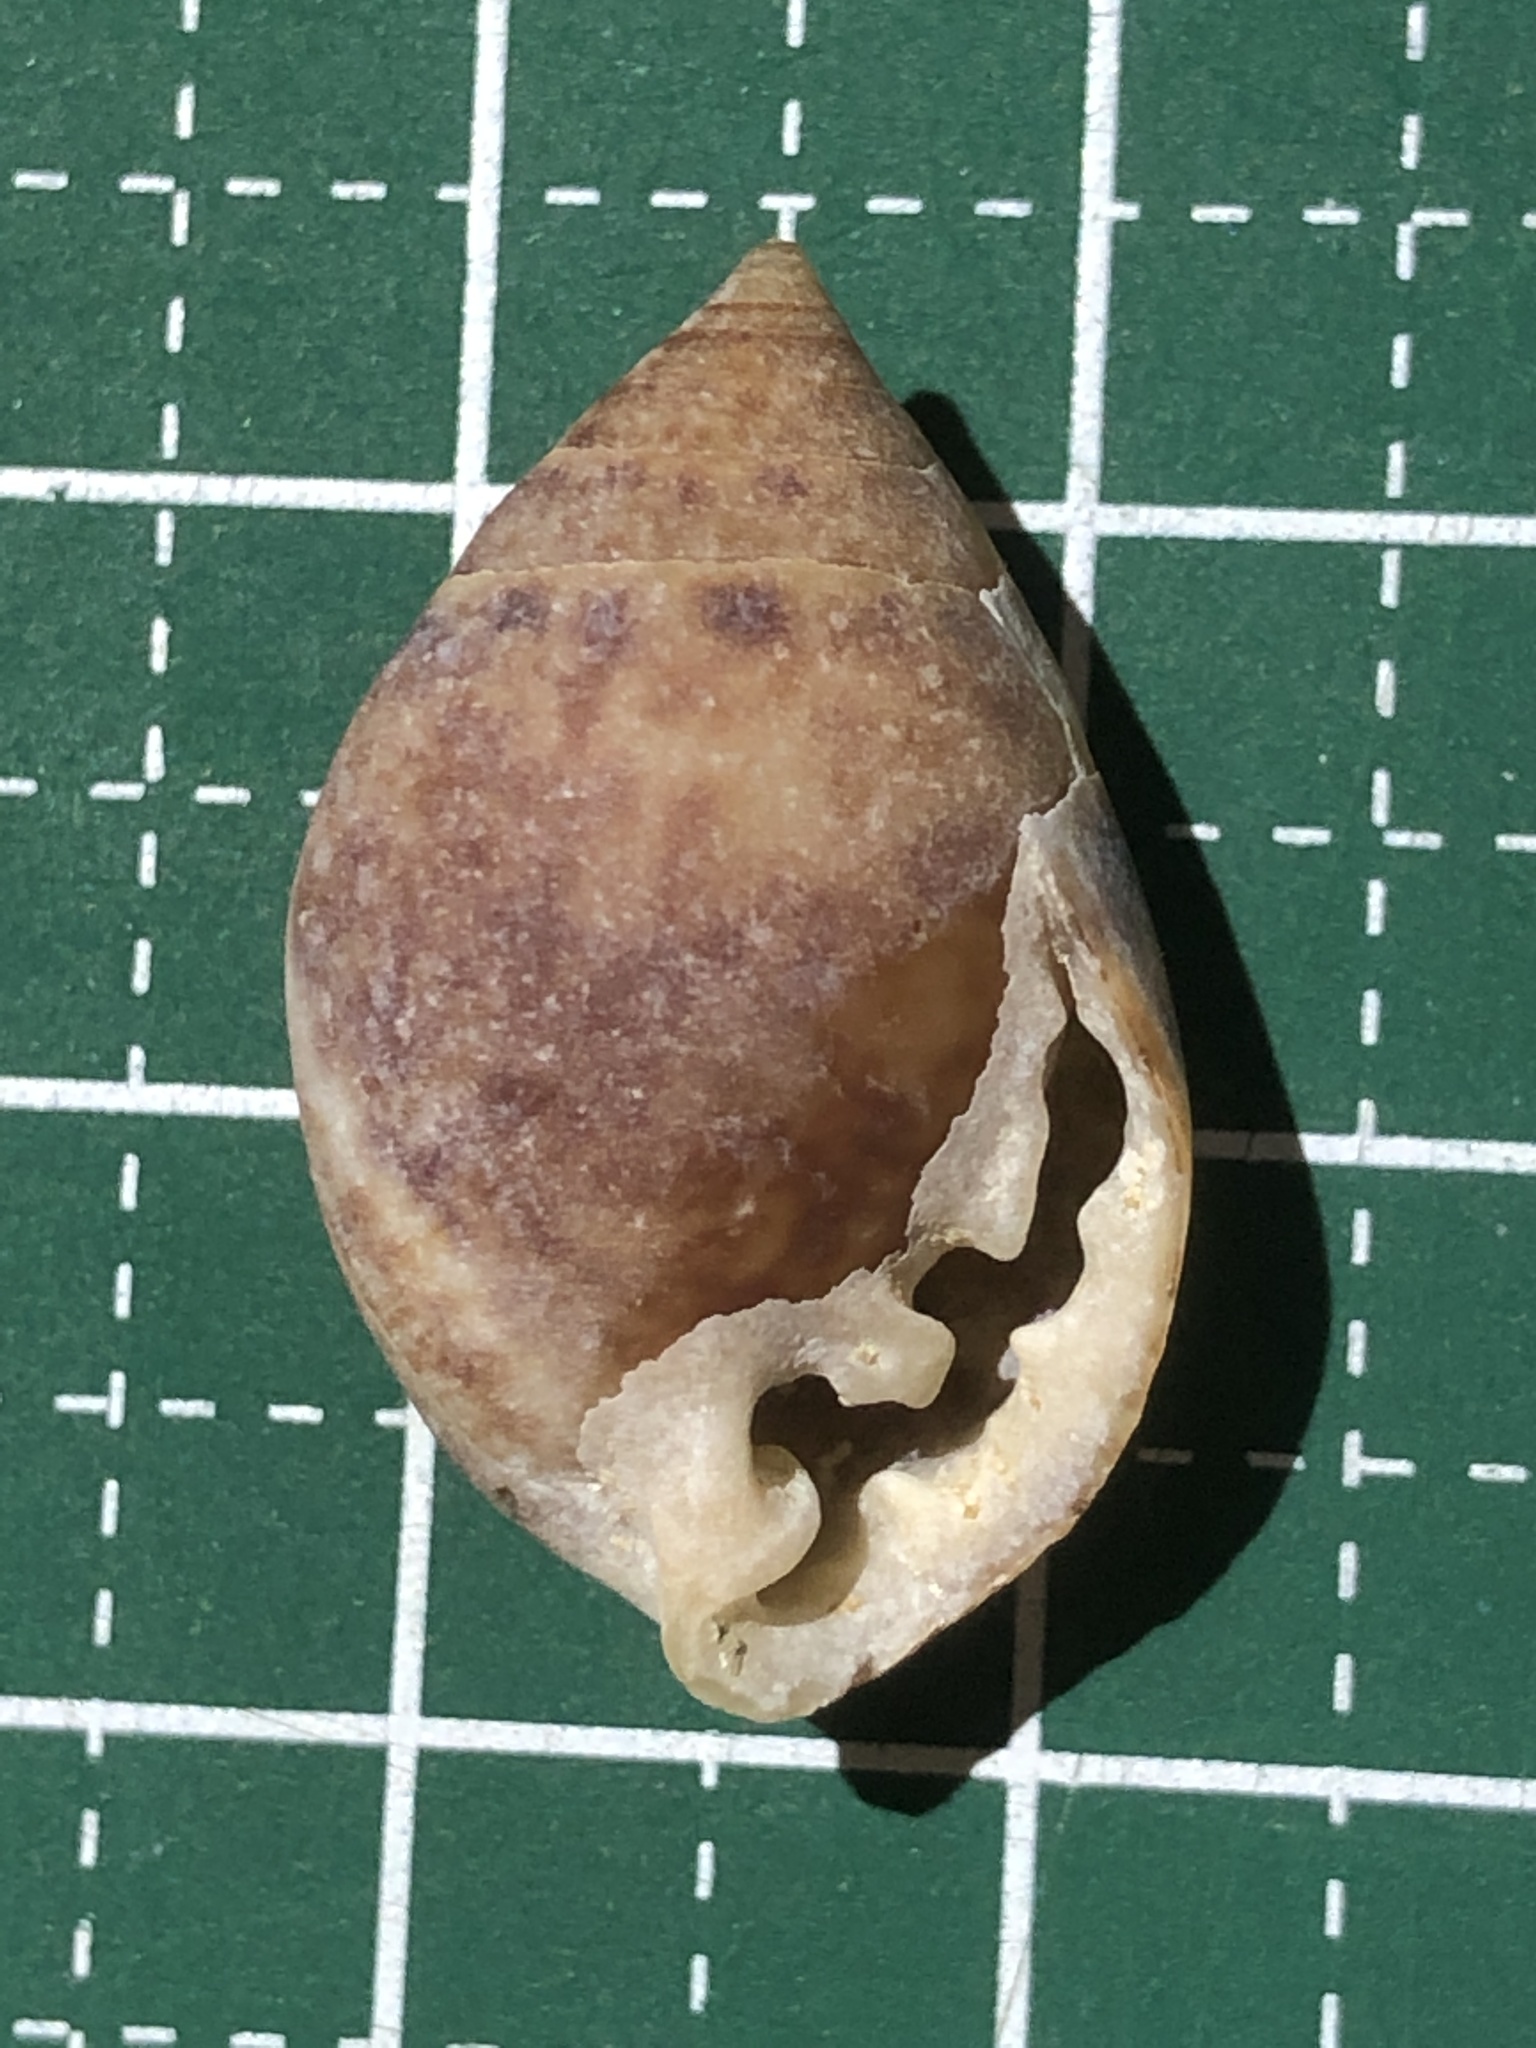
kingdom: Animalia
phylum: Mollusca
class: Gastropoda
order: Ellobiida
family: Ellobiidae
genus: Pythia
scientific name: Pythia pachyodon
